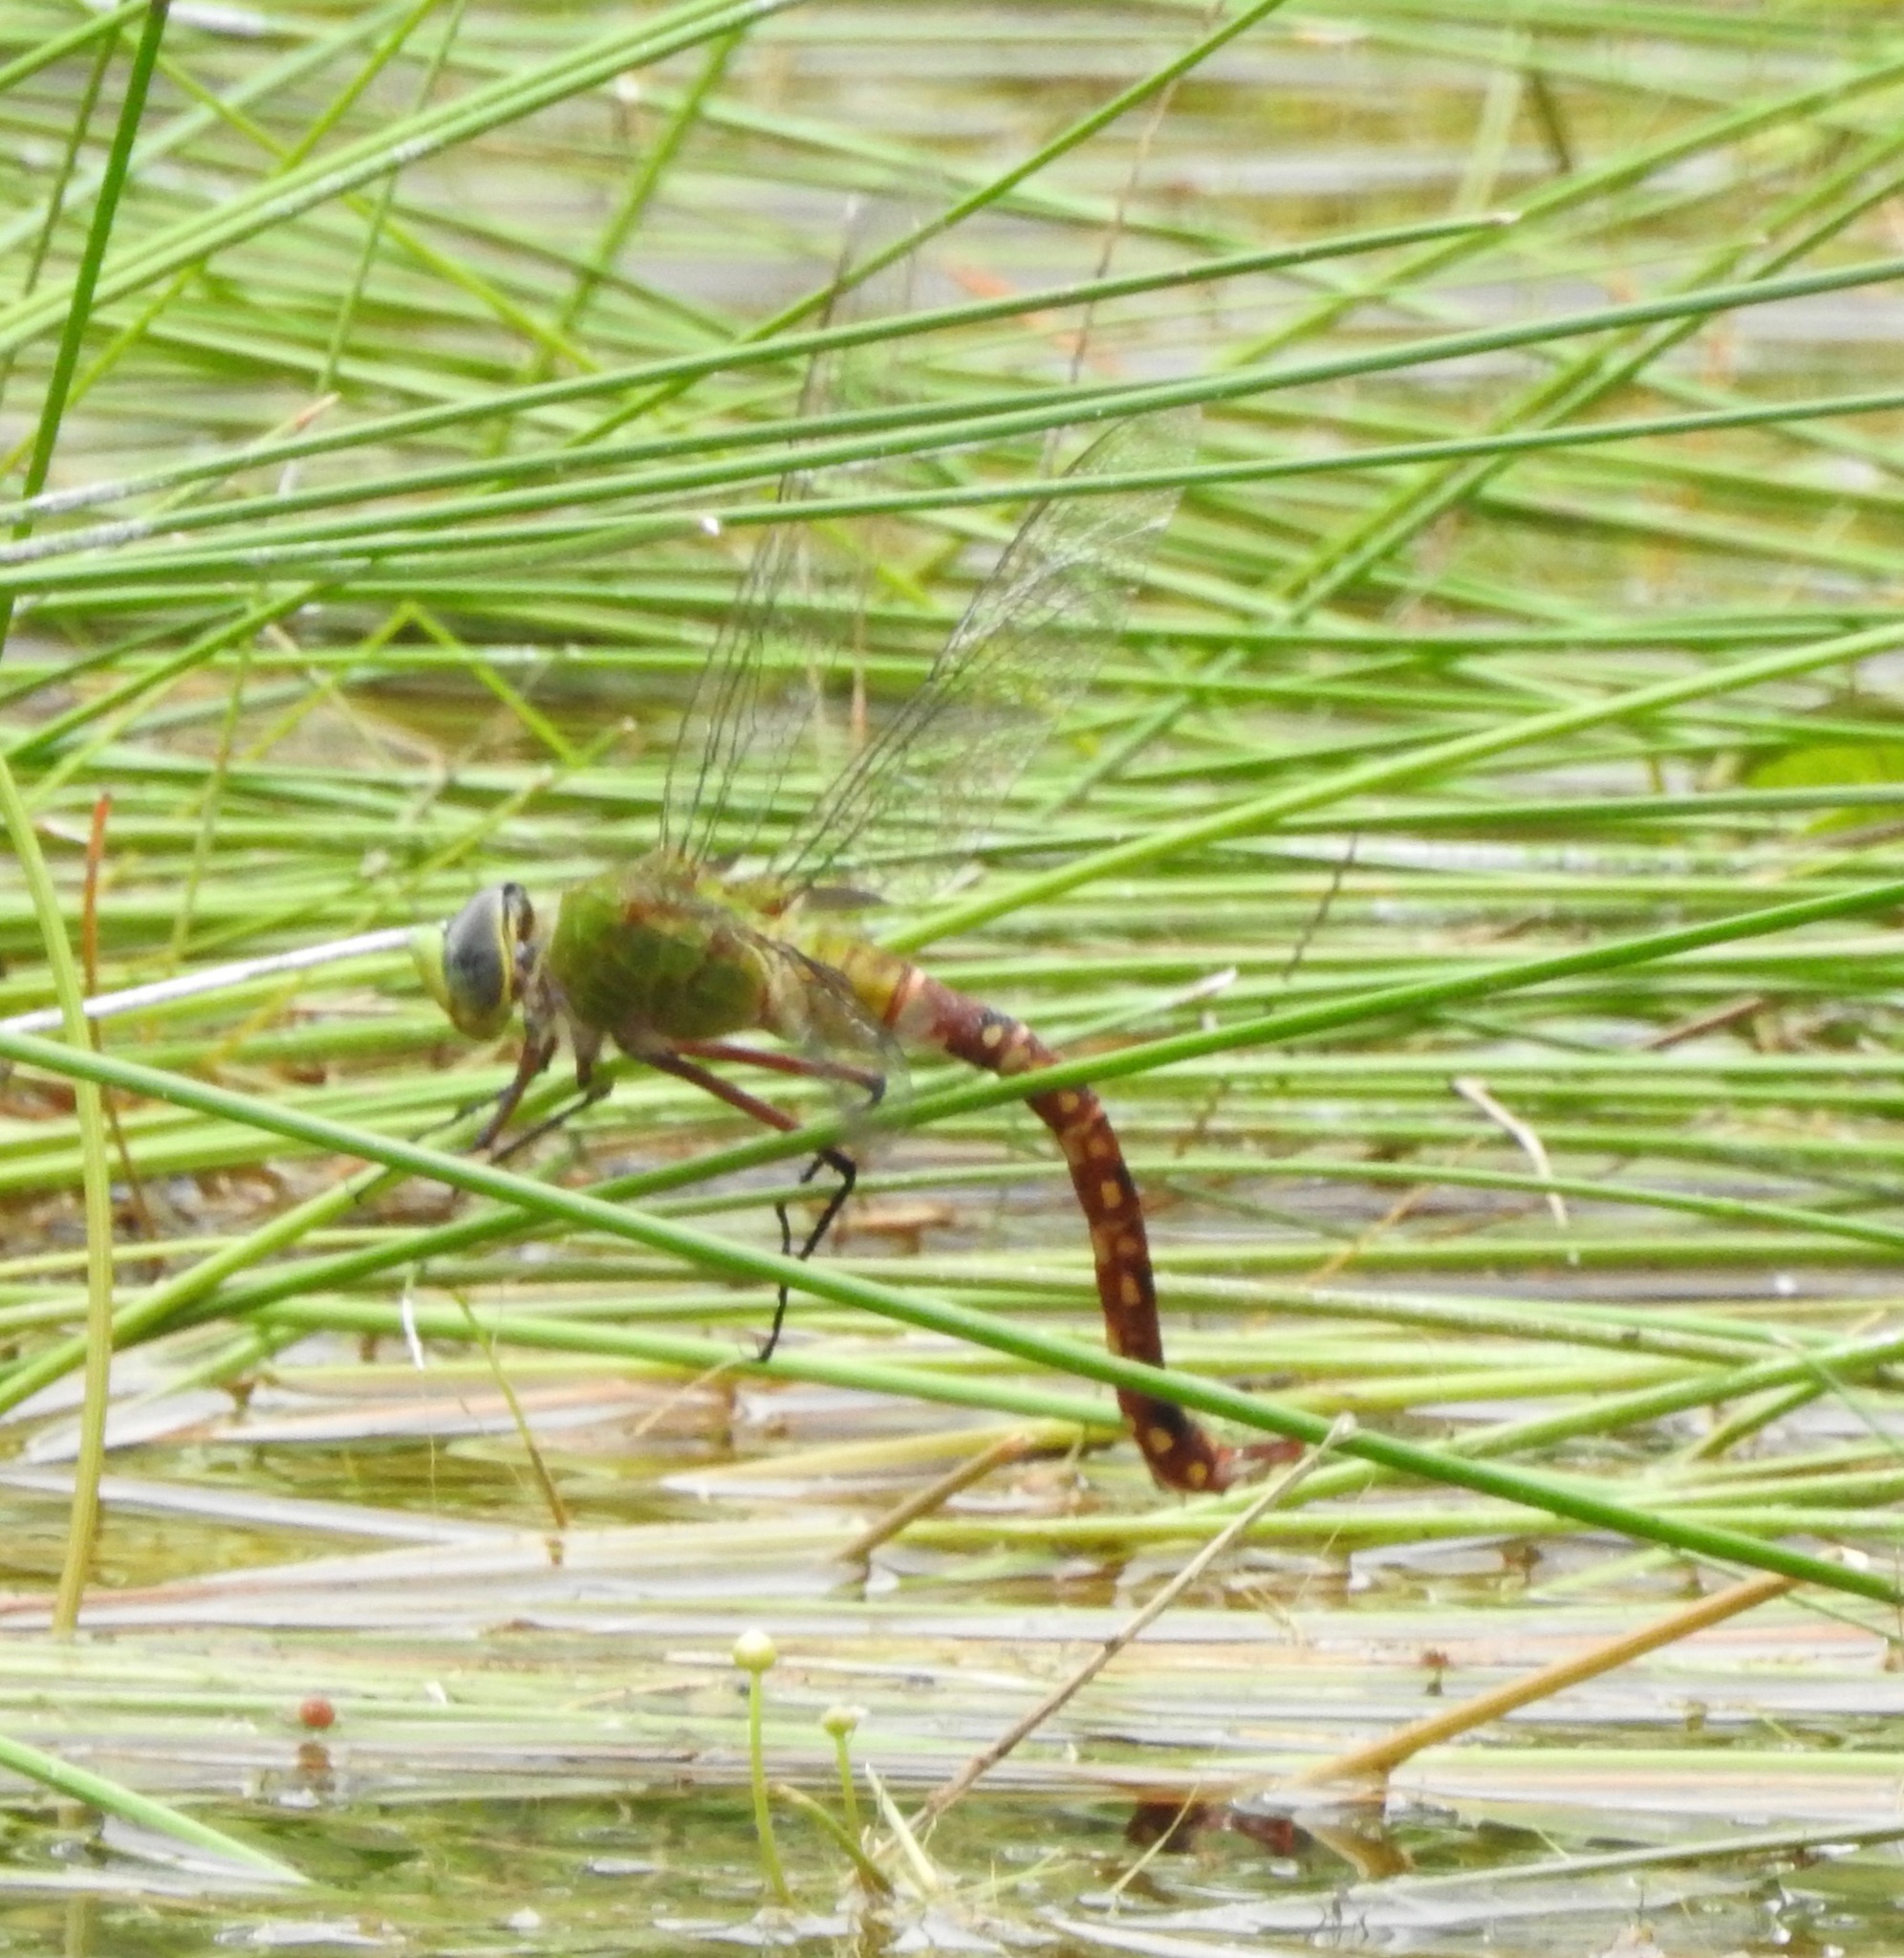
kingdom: Animalia
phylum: Arthropoda
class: Insecta
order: Odonata
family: Aeshnidae
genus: Anax
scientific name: Anax longipes
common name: Comet darner
